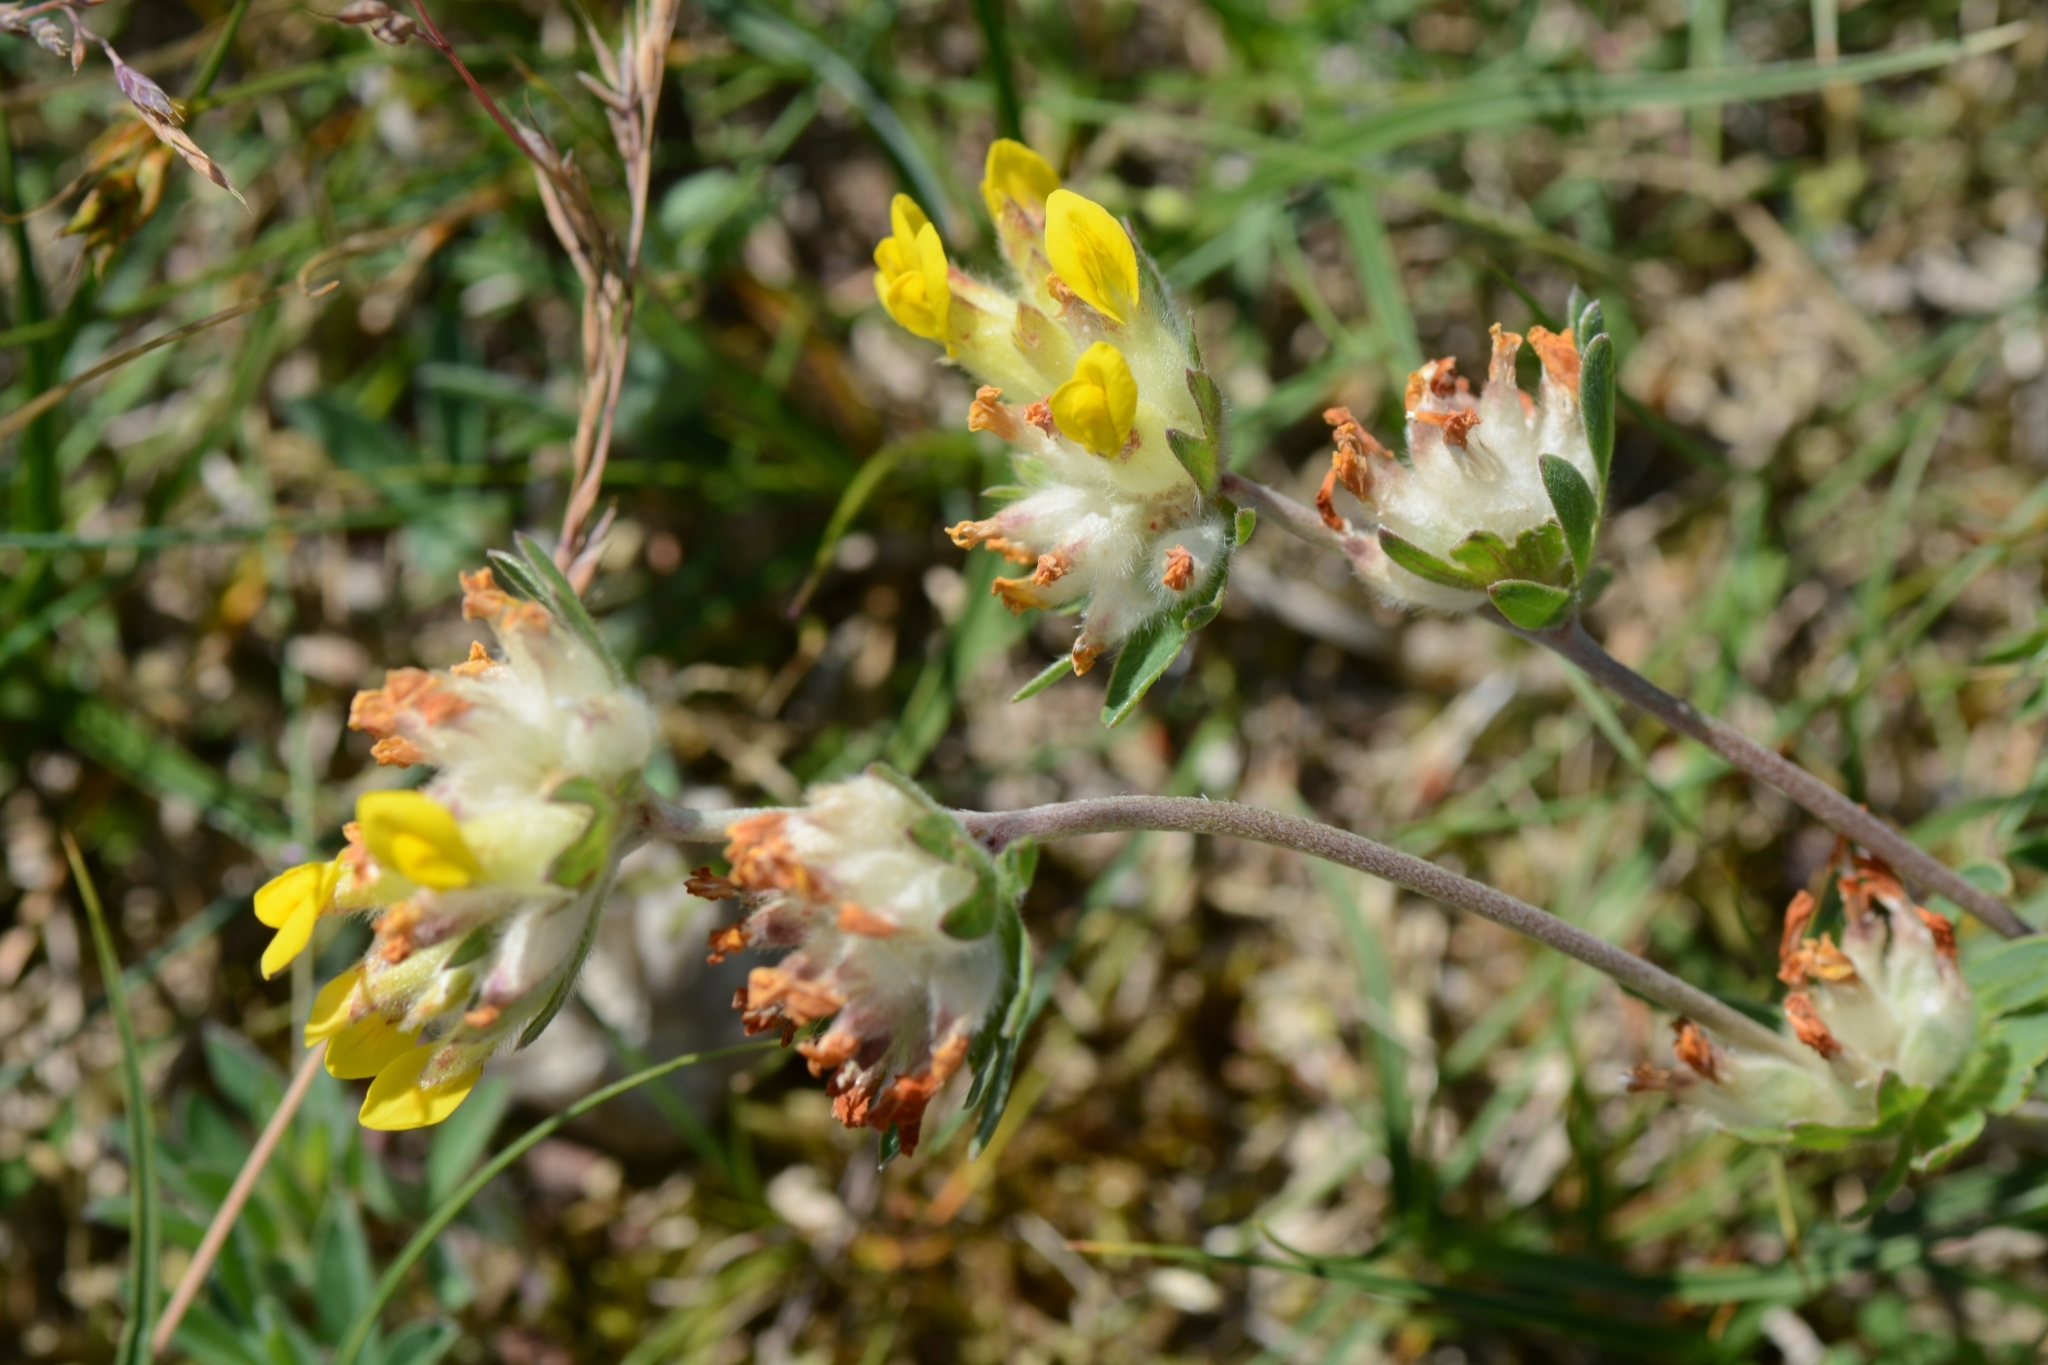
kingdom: Plantae
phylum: Tracheophyta
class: Magnoliopsida
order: Fabales
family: Fabaceae
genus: Anthyllis
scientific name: Anthyllis vulneraria
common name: Kidney vetch
